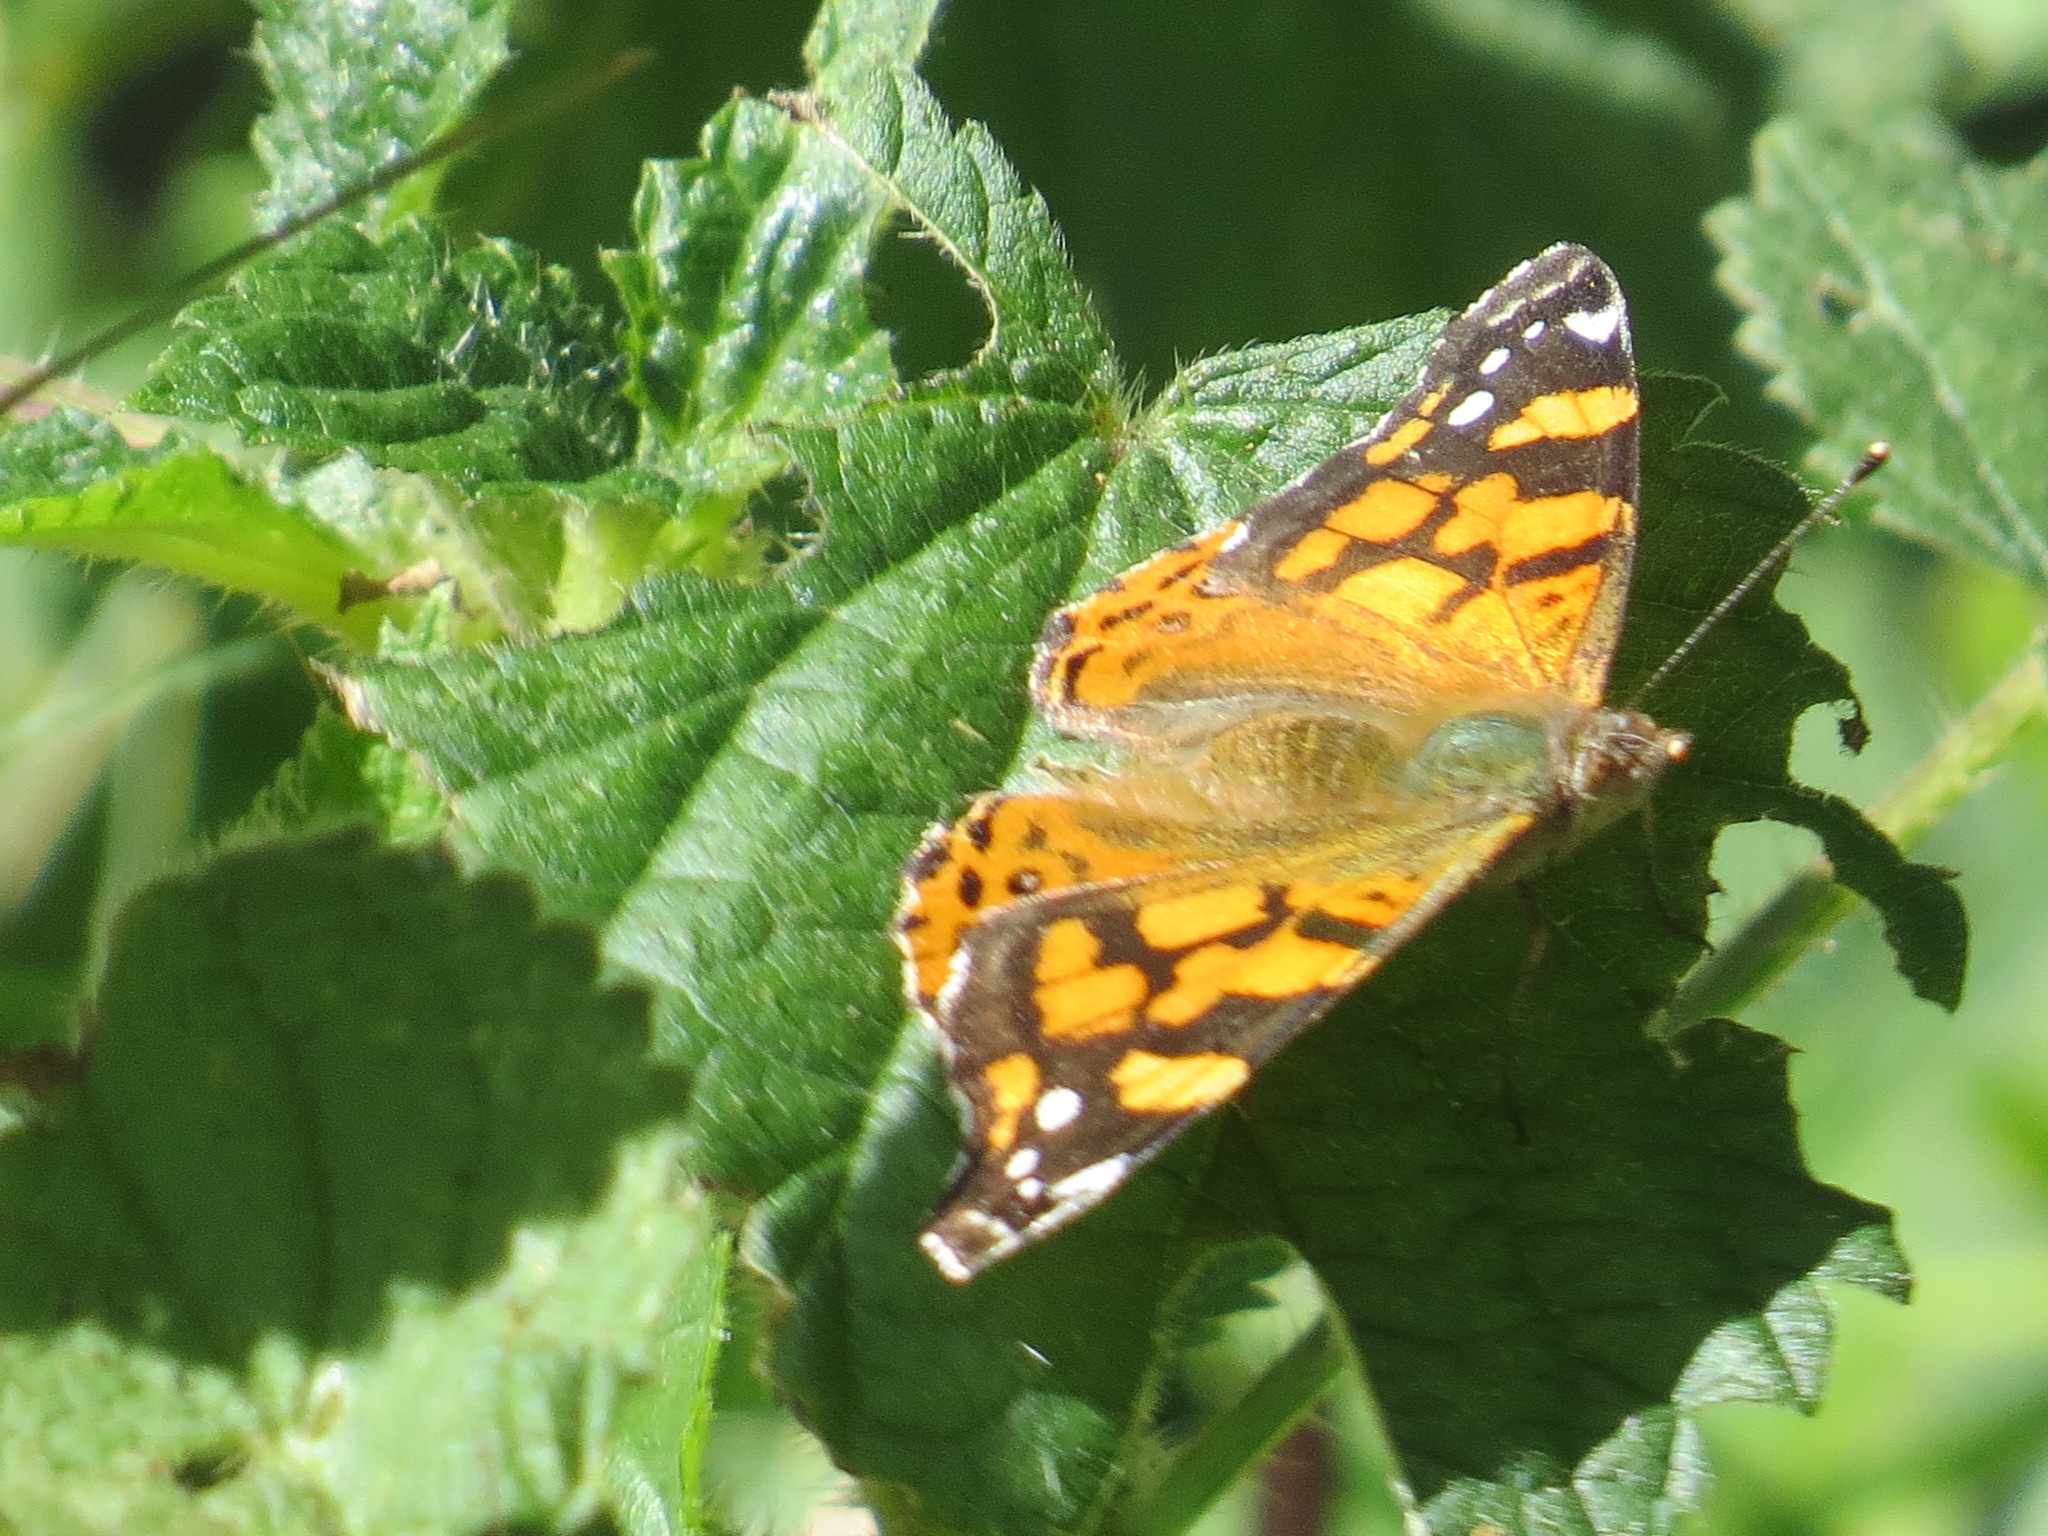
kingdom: Animalia
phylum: Arthropoda
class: Insecta
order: Lepidoptera
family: Nymphalidae
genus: Vanessa
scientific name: Vanessa annabella
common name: West coast lady
